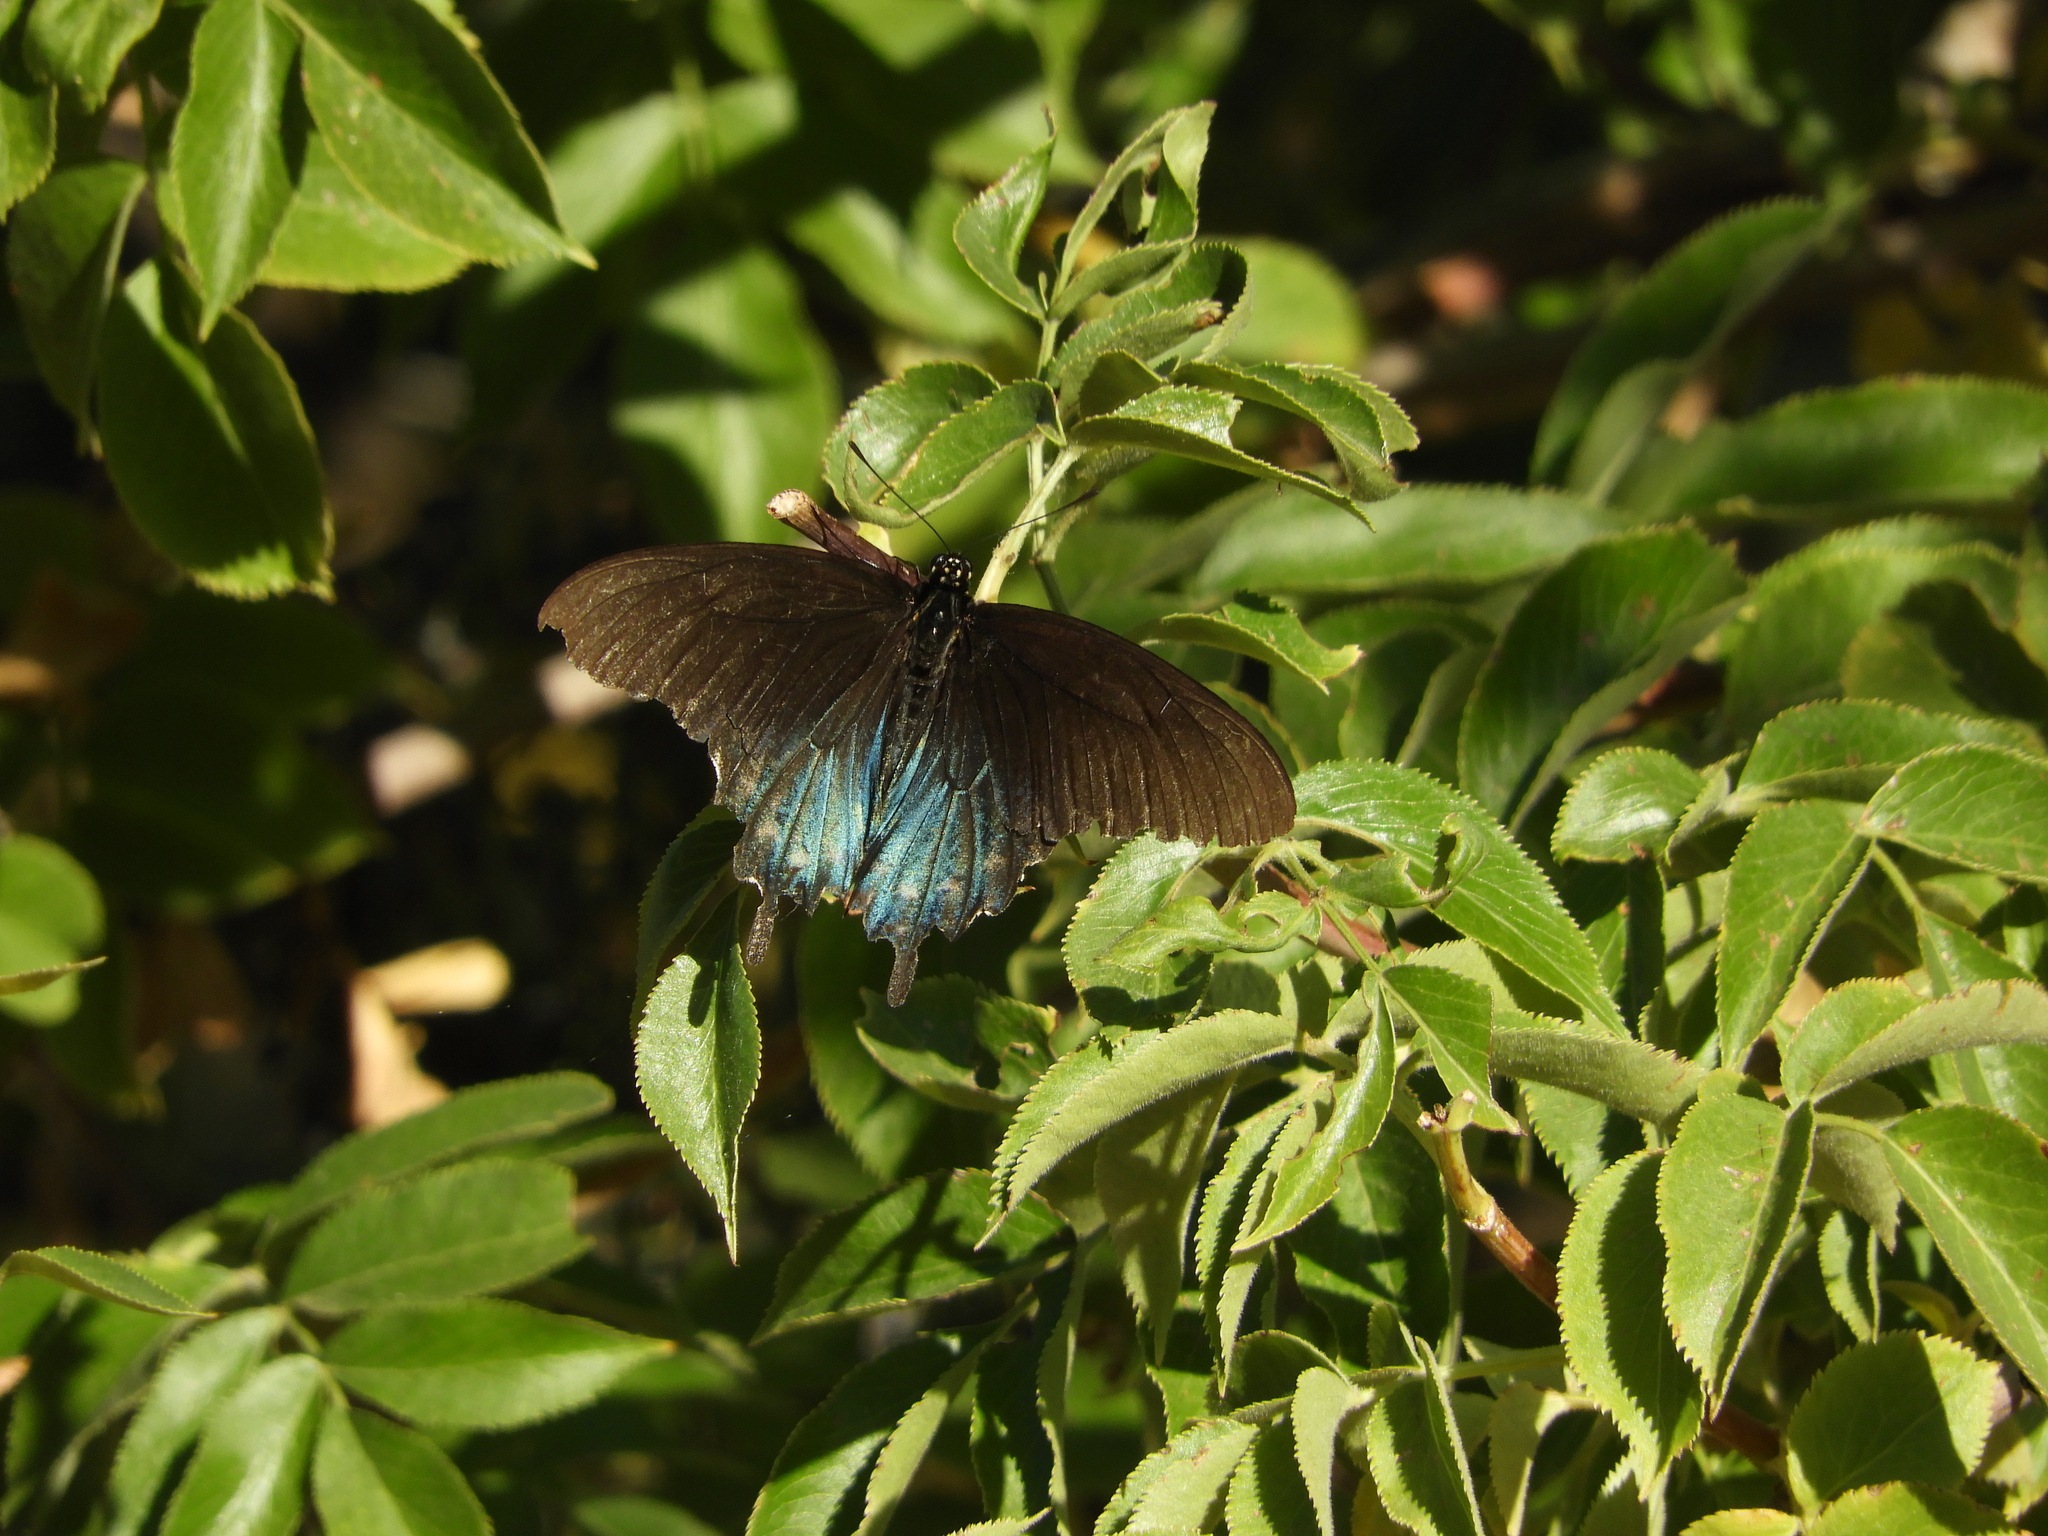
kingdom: Animalia
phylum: Arthropoda
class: Insecta
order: Lepidoptera
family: Papilionidae
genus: Battus
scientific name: Battus philenor
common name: Pipevine swallowtail
